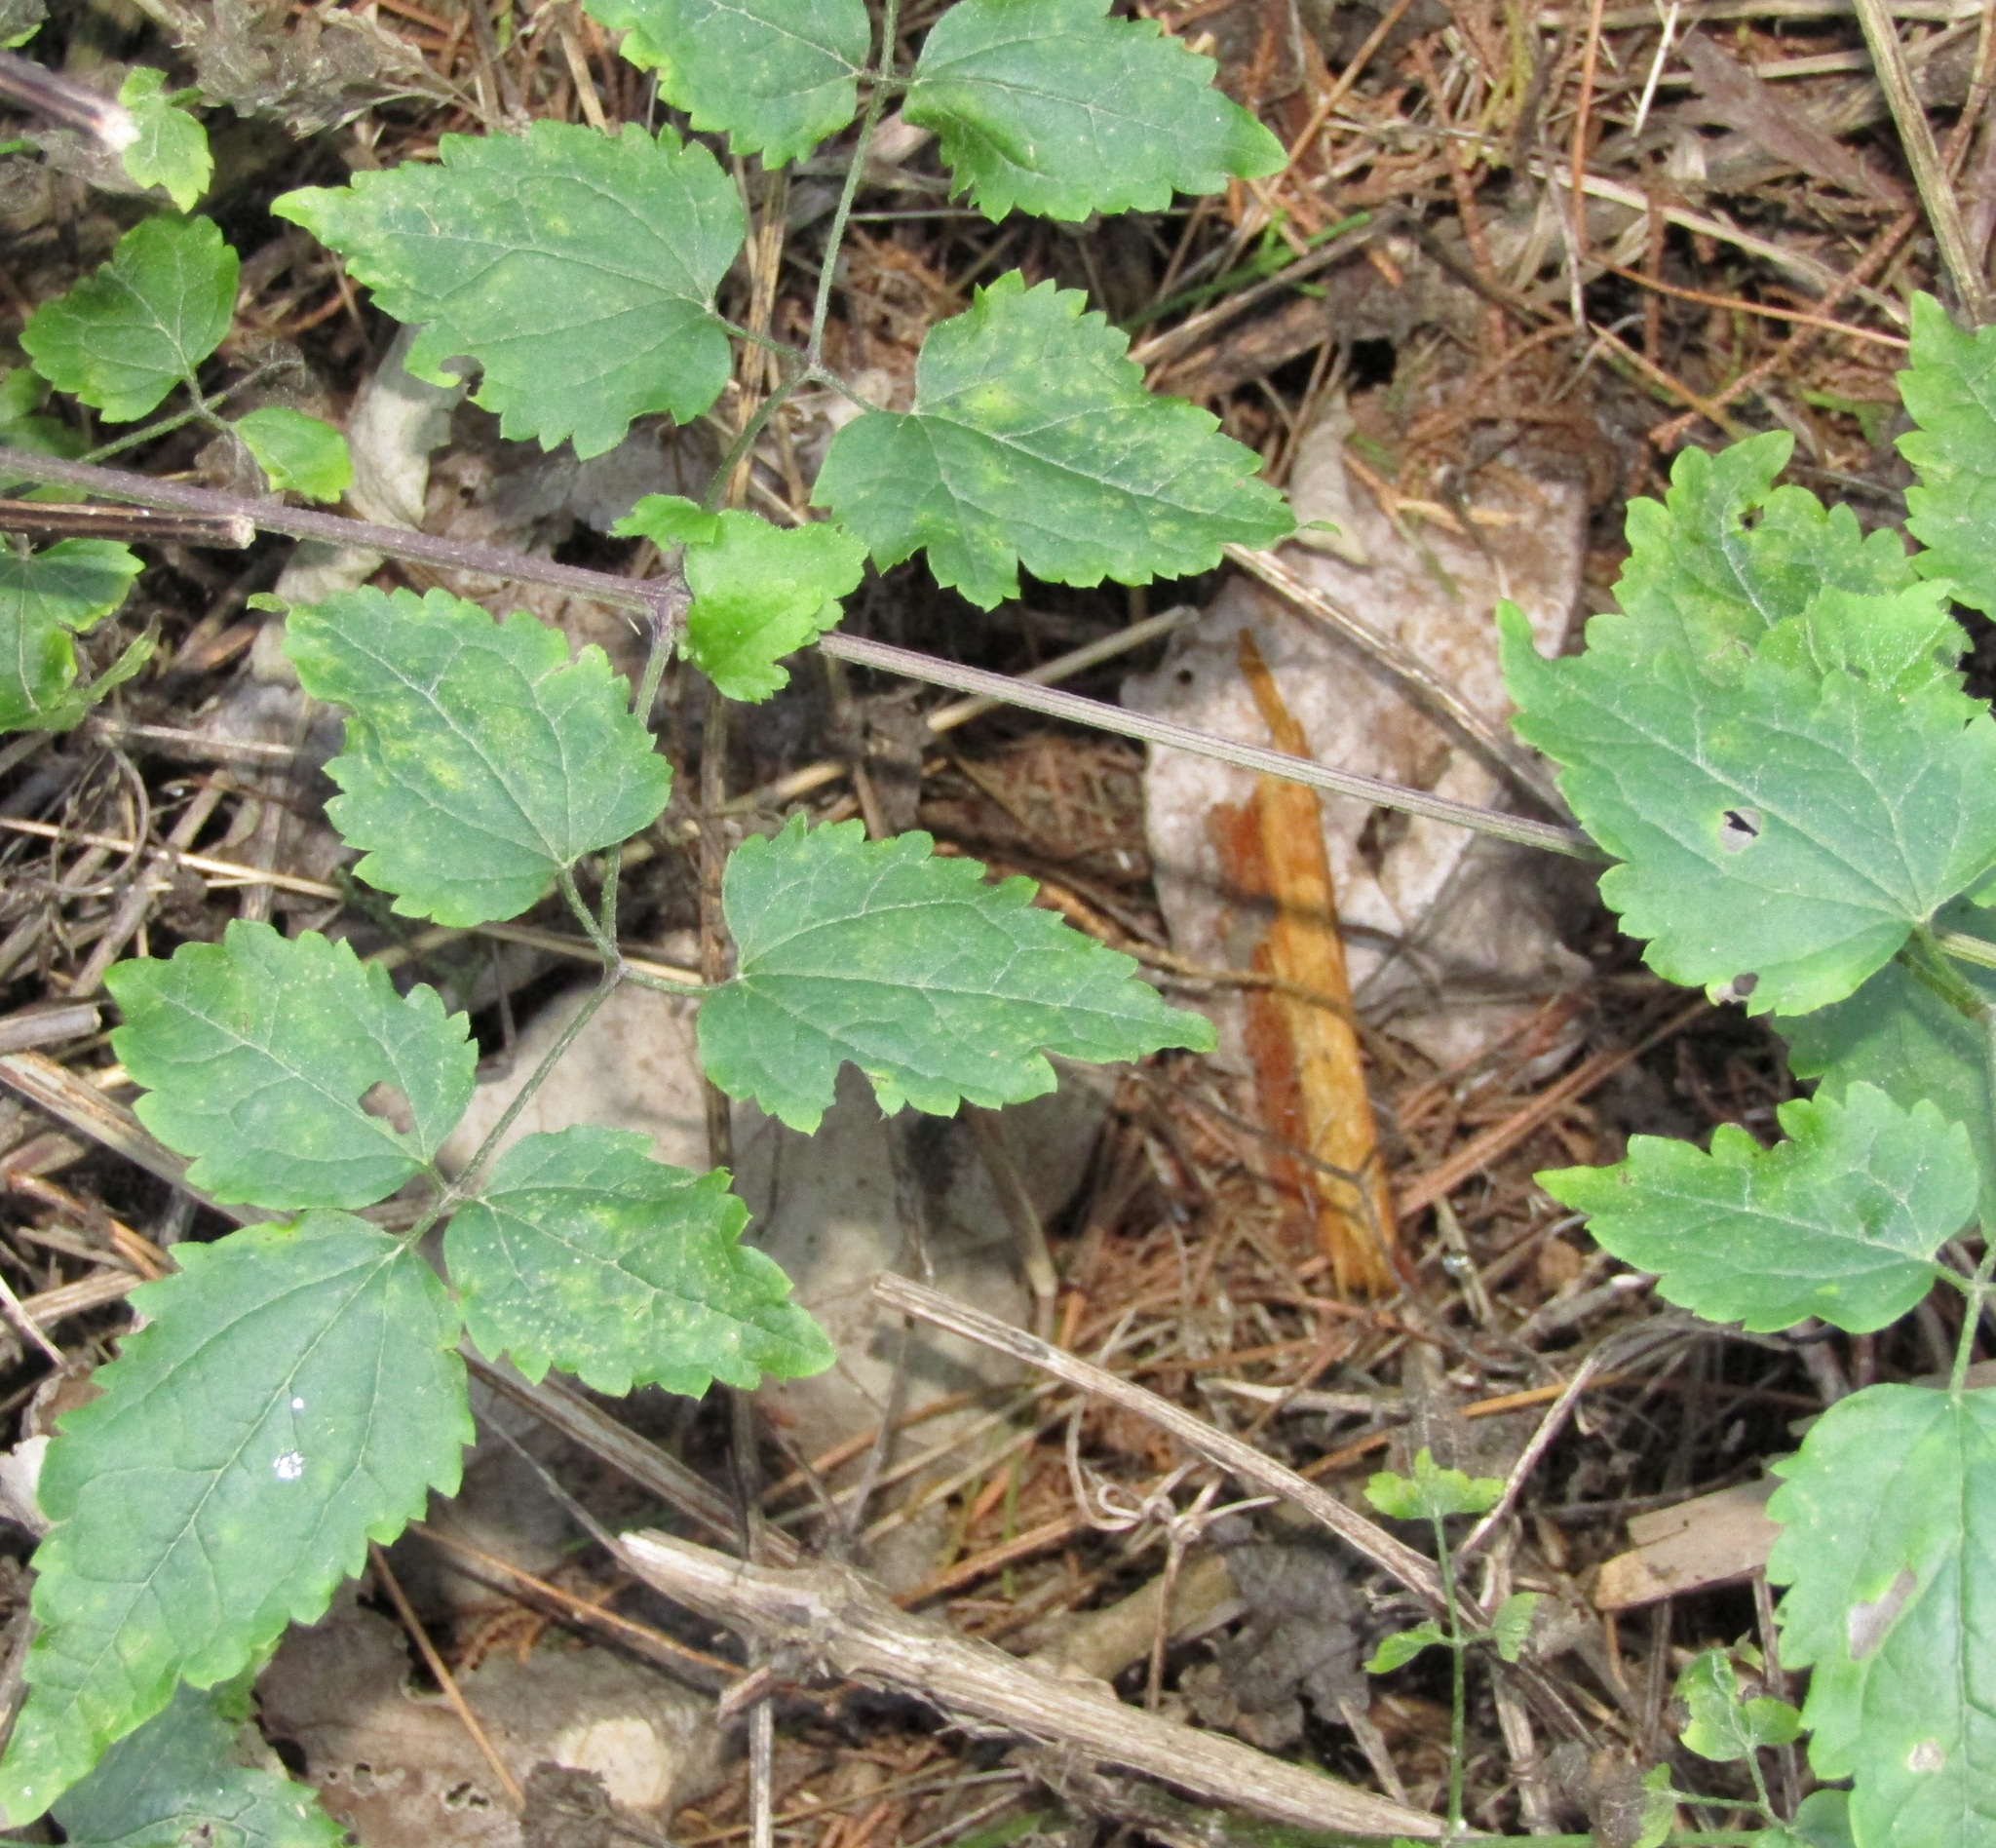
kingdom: Plantae
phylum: Tracheophyta
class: Magnoliopsida
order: Ranunculales
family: Ranunculaceae
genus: Clematis
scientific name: Clematis vitalba
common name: Evergreen clematis
